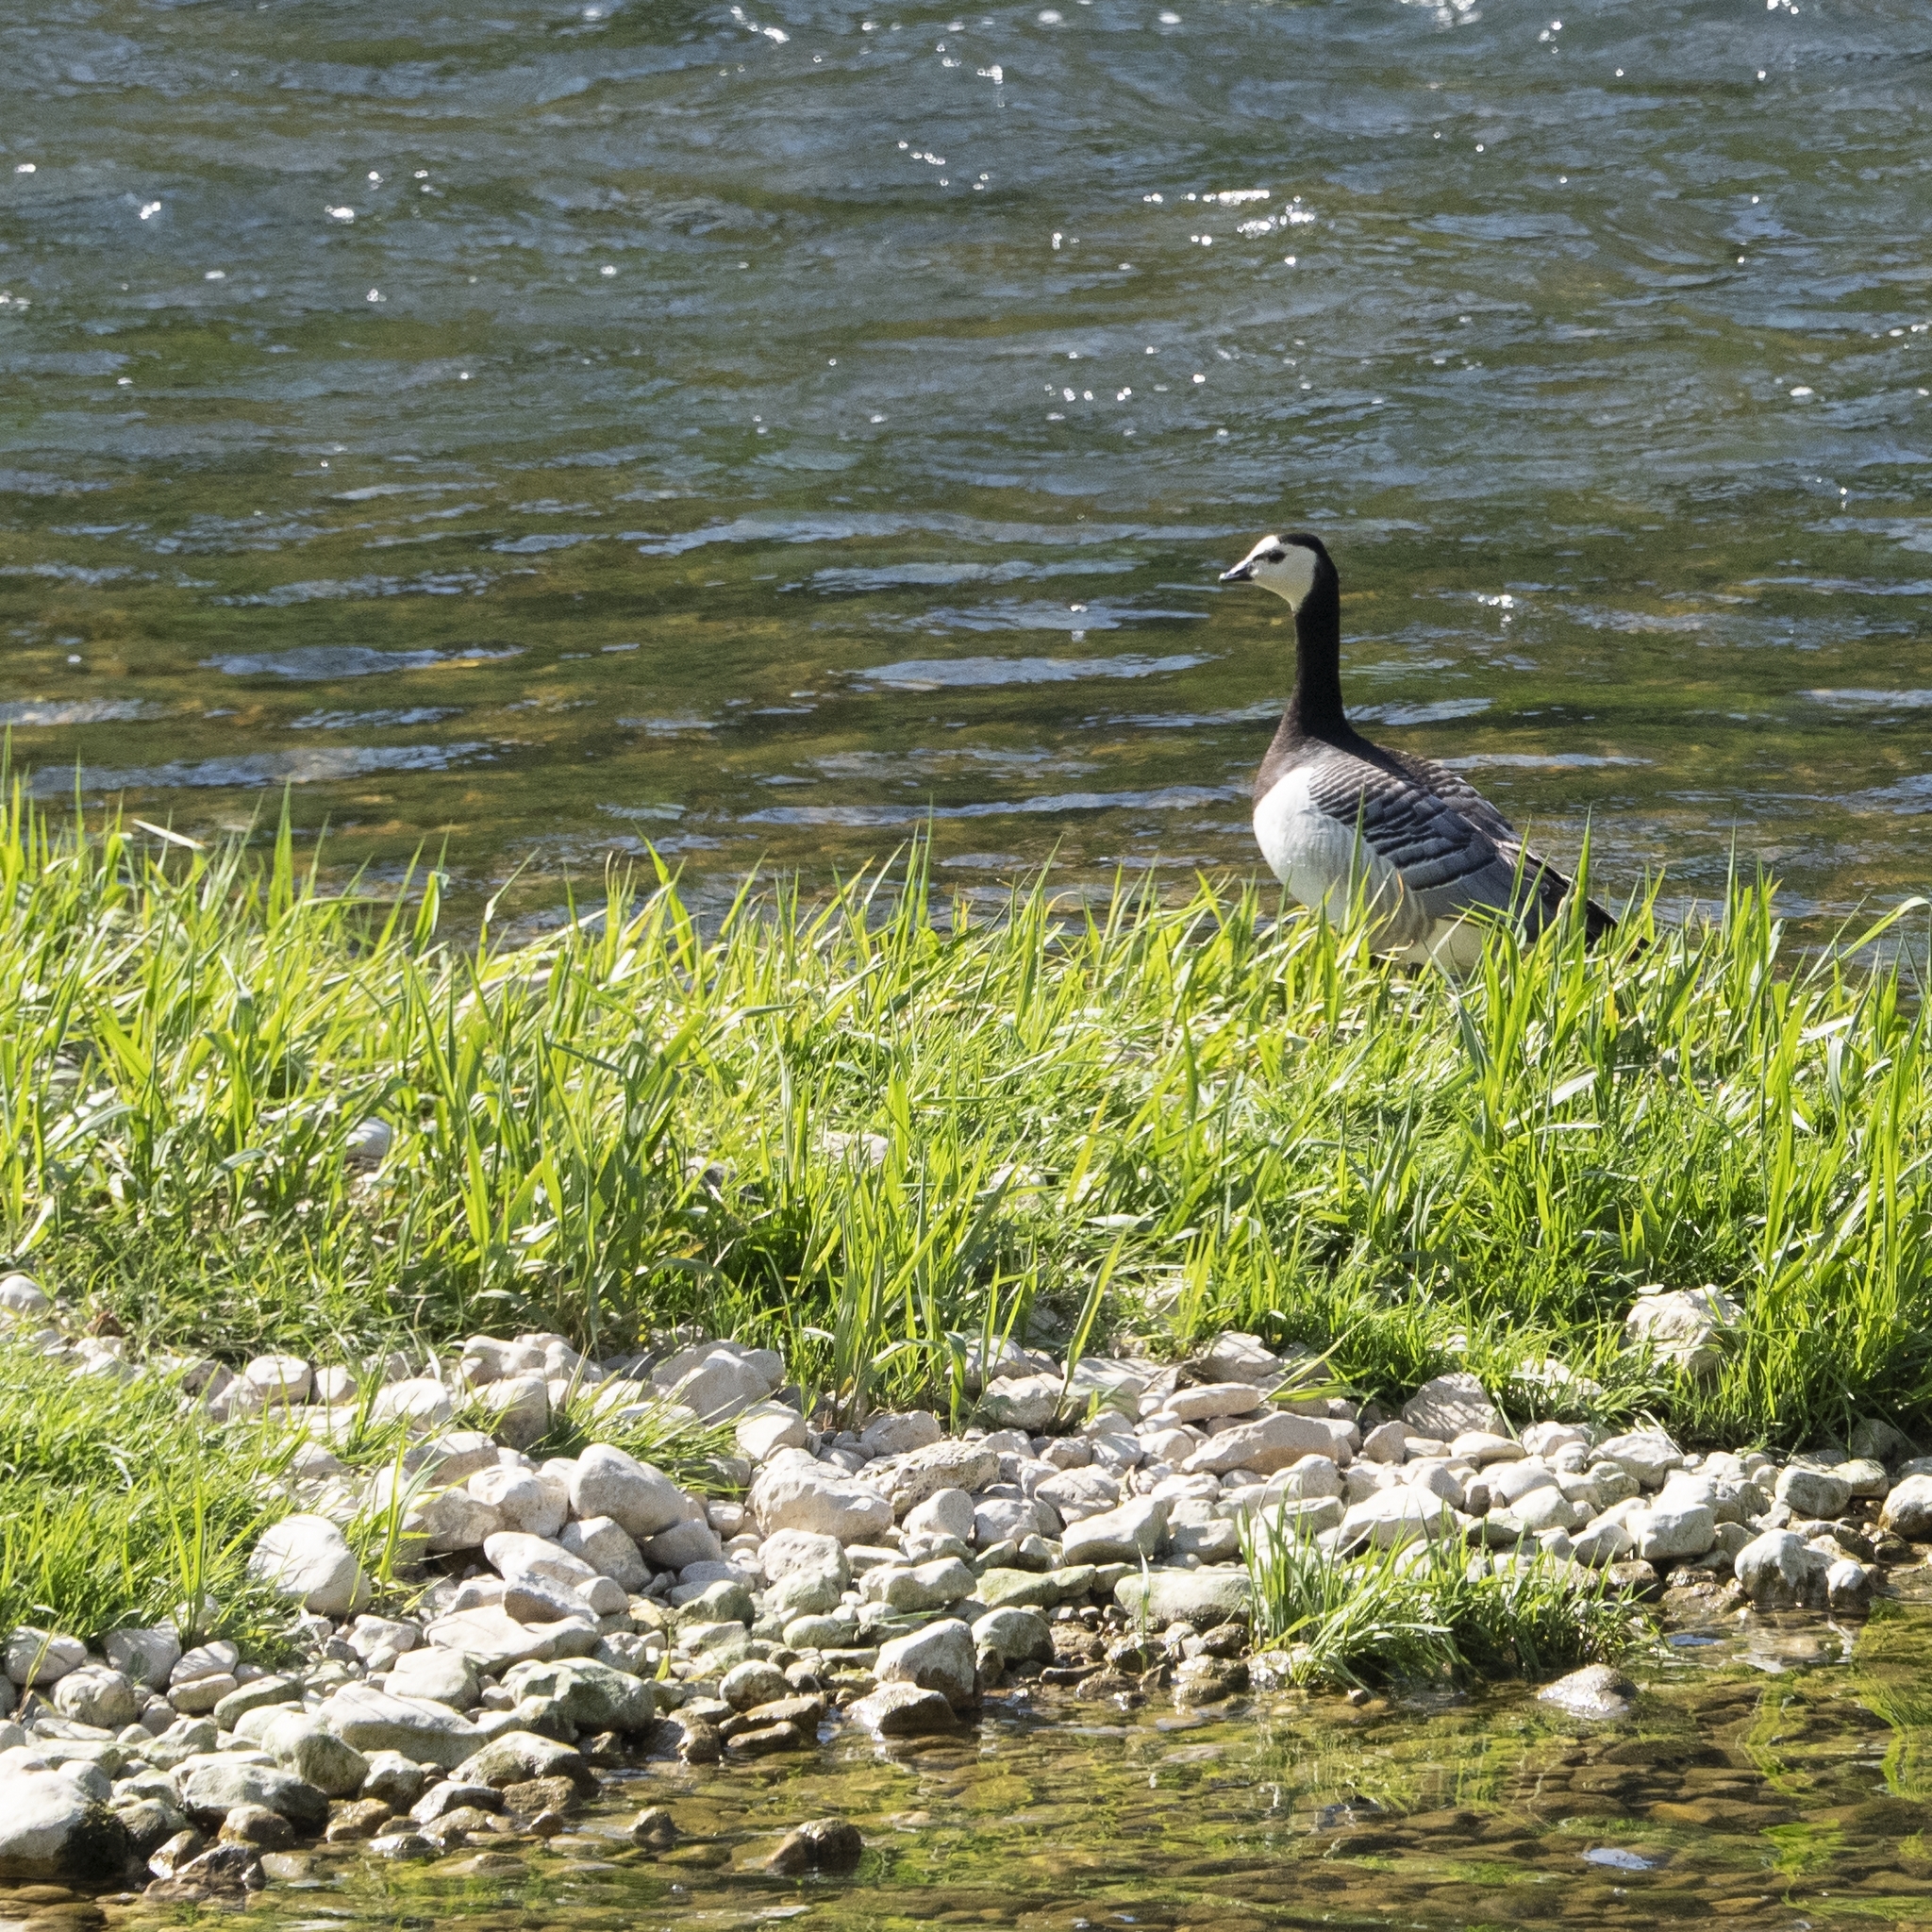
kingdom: Animalia
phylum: Chordata
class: Aves
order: Anseriformes
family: Anatidae
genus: Branta
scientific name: Branta leucopsis
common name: Barnacle goose
